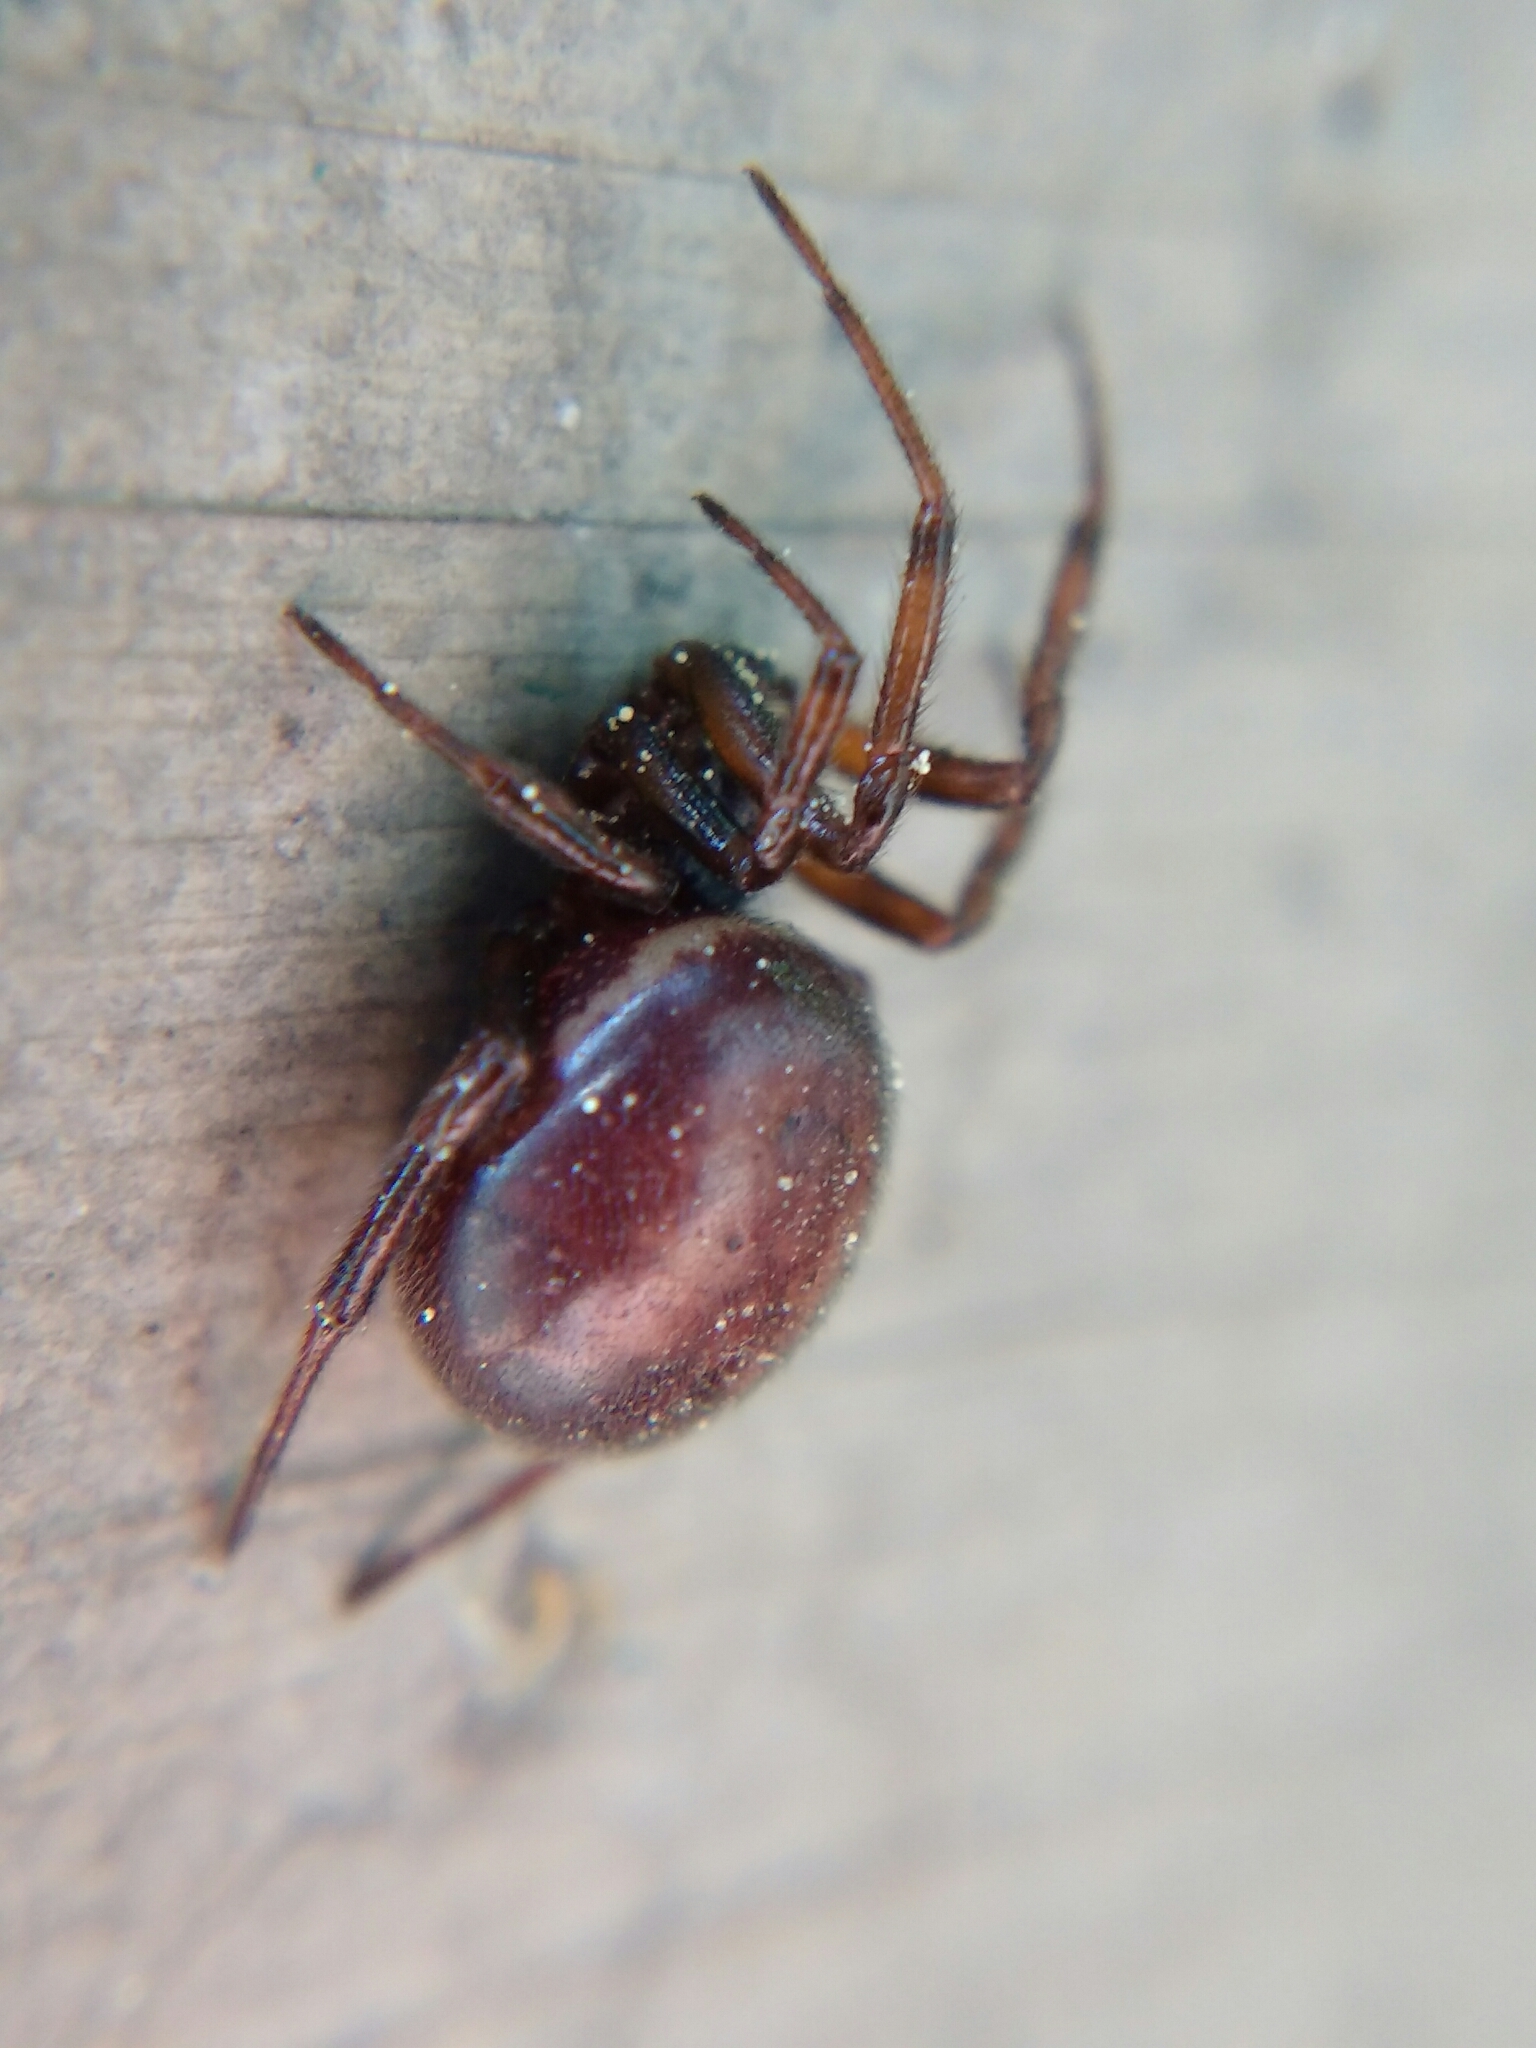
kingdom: Animalia
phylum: Arthropoda
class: Arachnida
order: Araneae
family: Theridiidae
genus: Steatoda
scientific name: Steatoda bipunctata
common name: False widow
